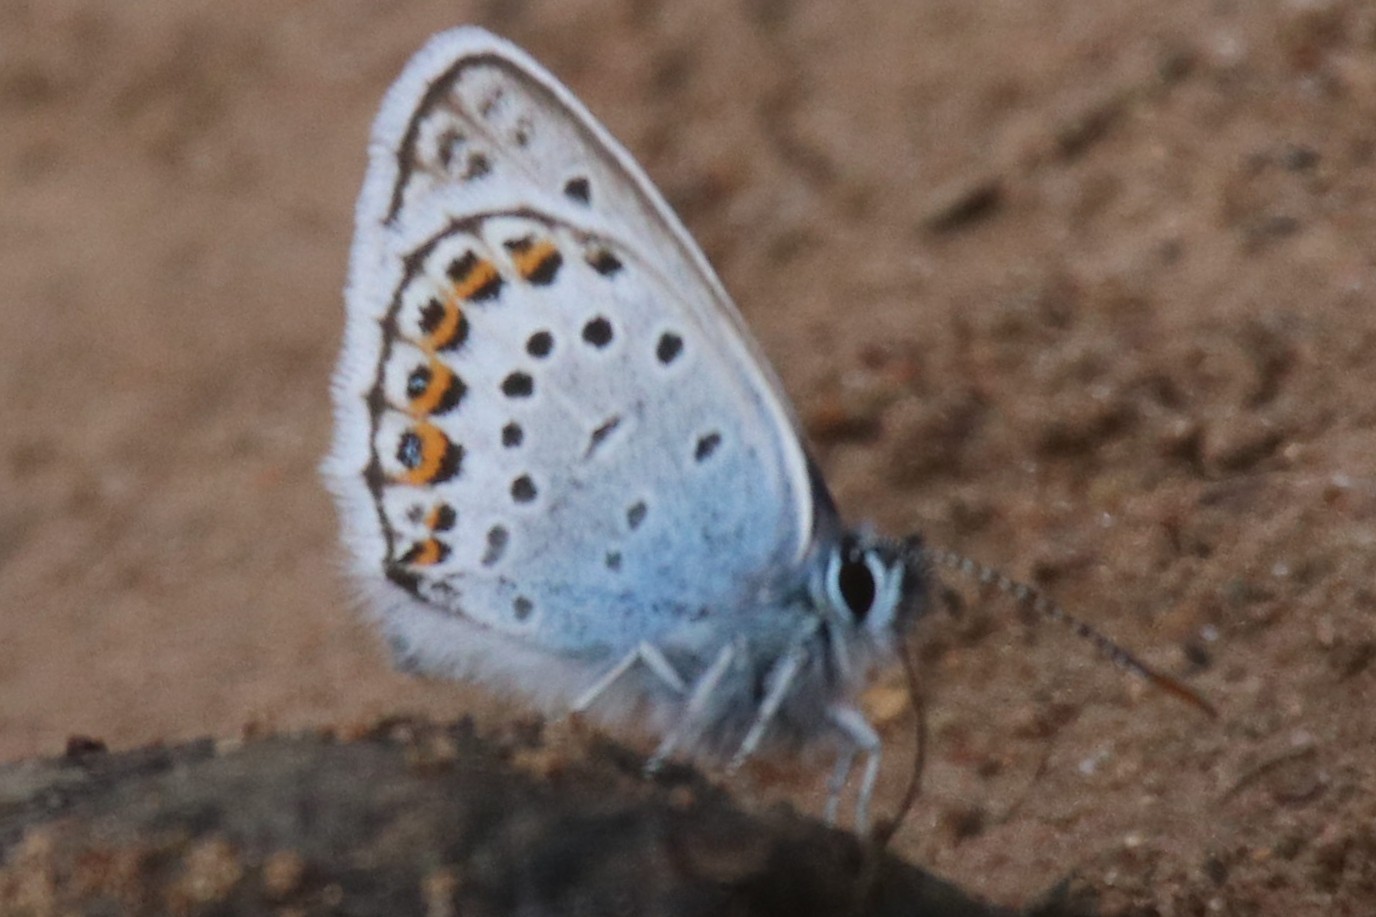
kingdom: Animalia
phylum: Arthropoda
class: Insecta
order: Lepidoptera
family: Lycaenidae
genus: Plebejus
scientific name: Plebejus argus
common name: Silver-studded blue
